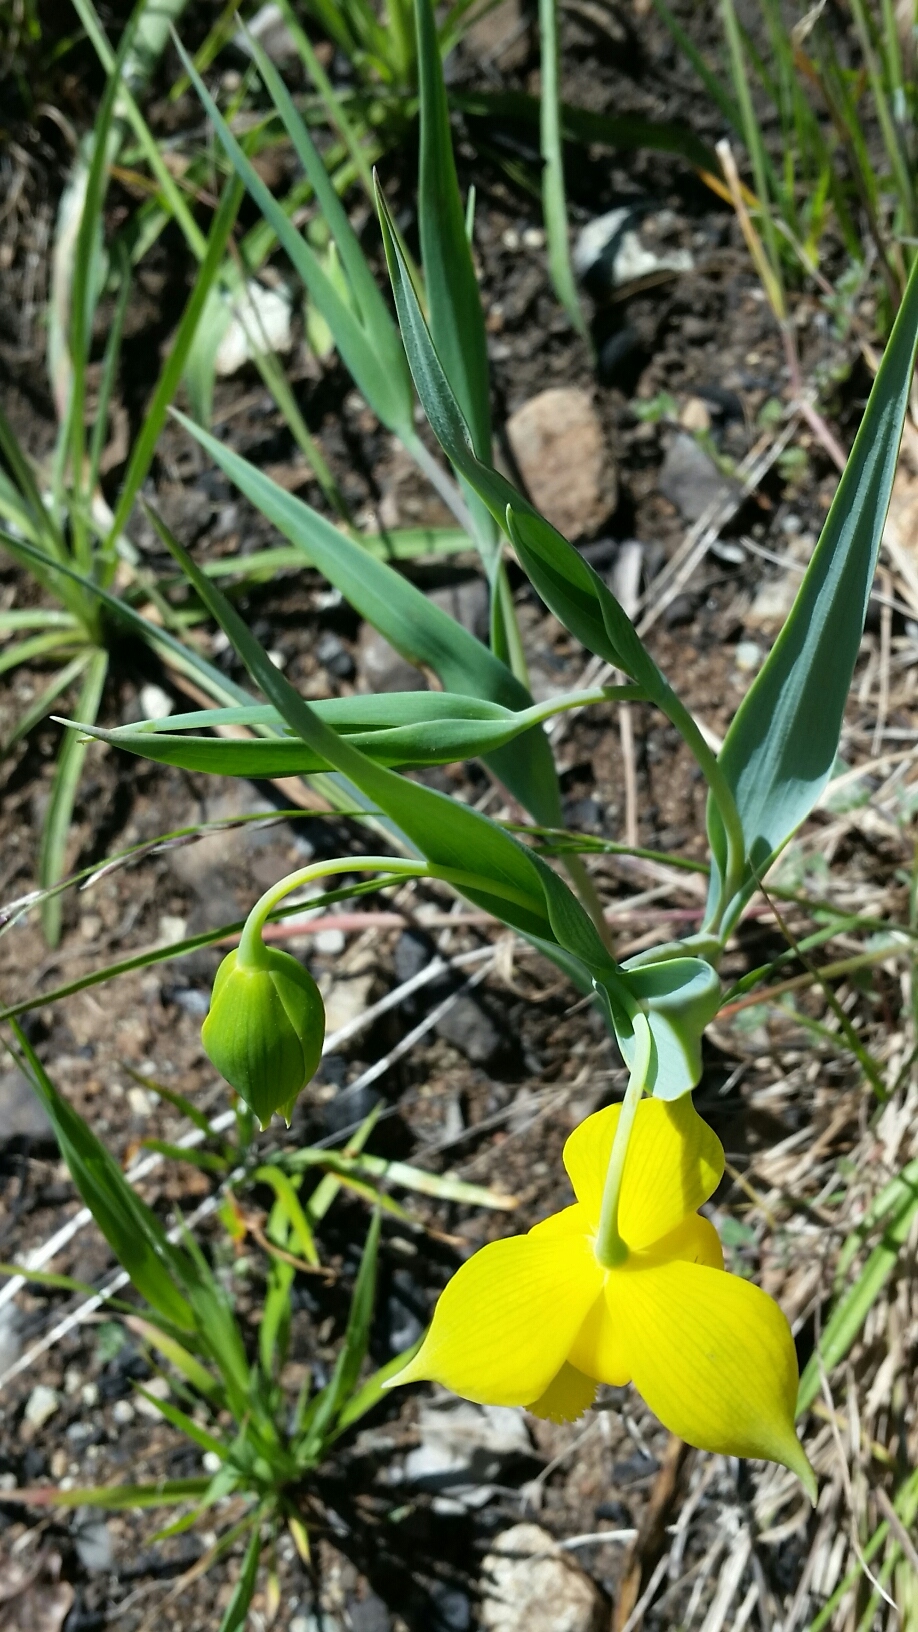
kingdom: Plantae
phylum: Tracheophyta
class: Liliopsida
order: Liliales
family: Liliaceae
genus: Calochortus
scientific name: Calochortus amabilis
